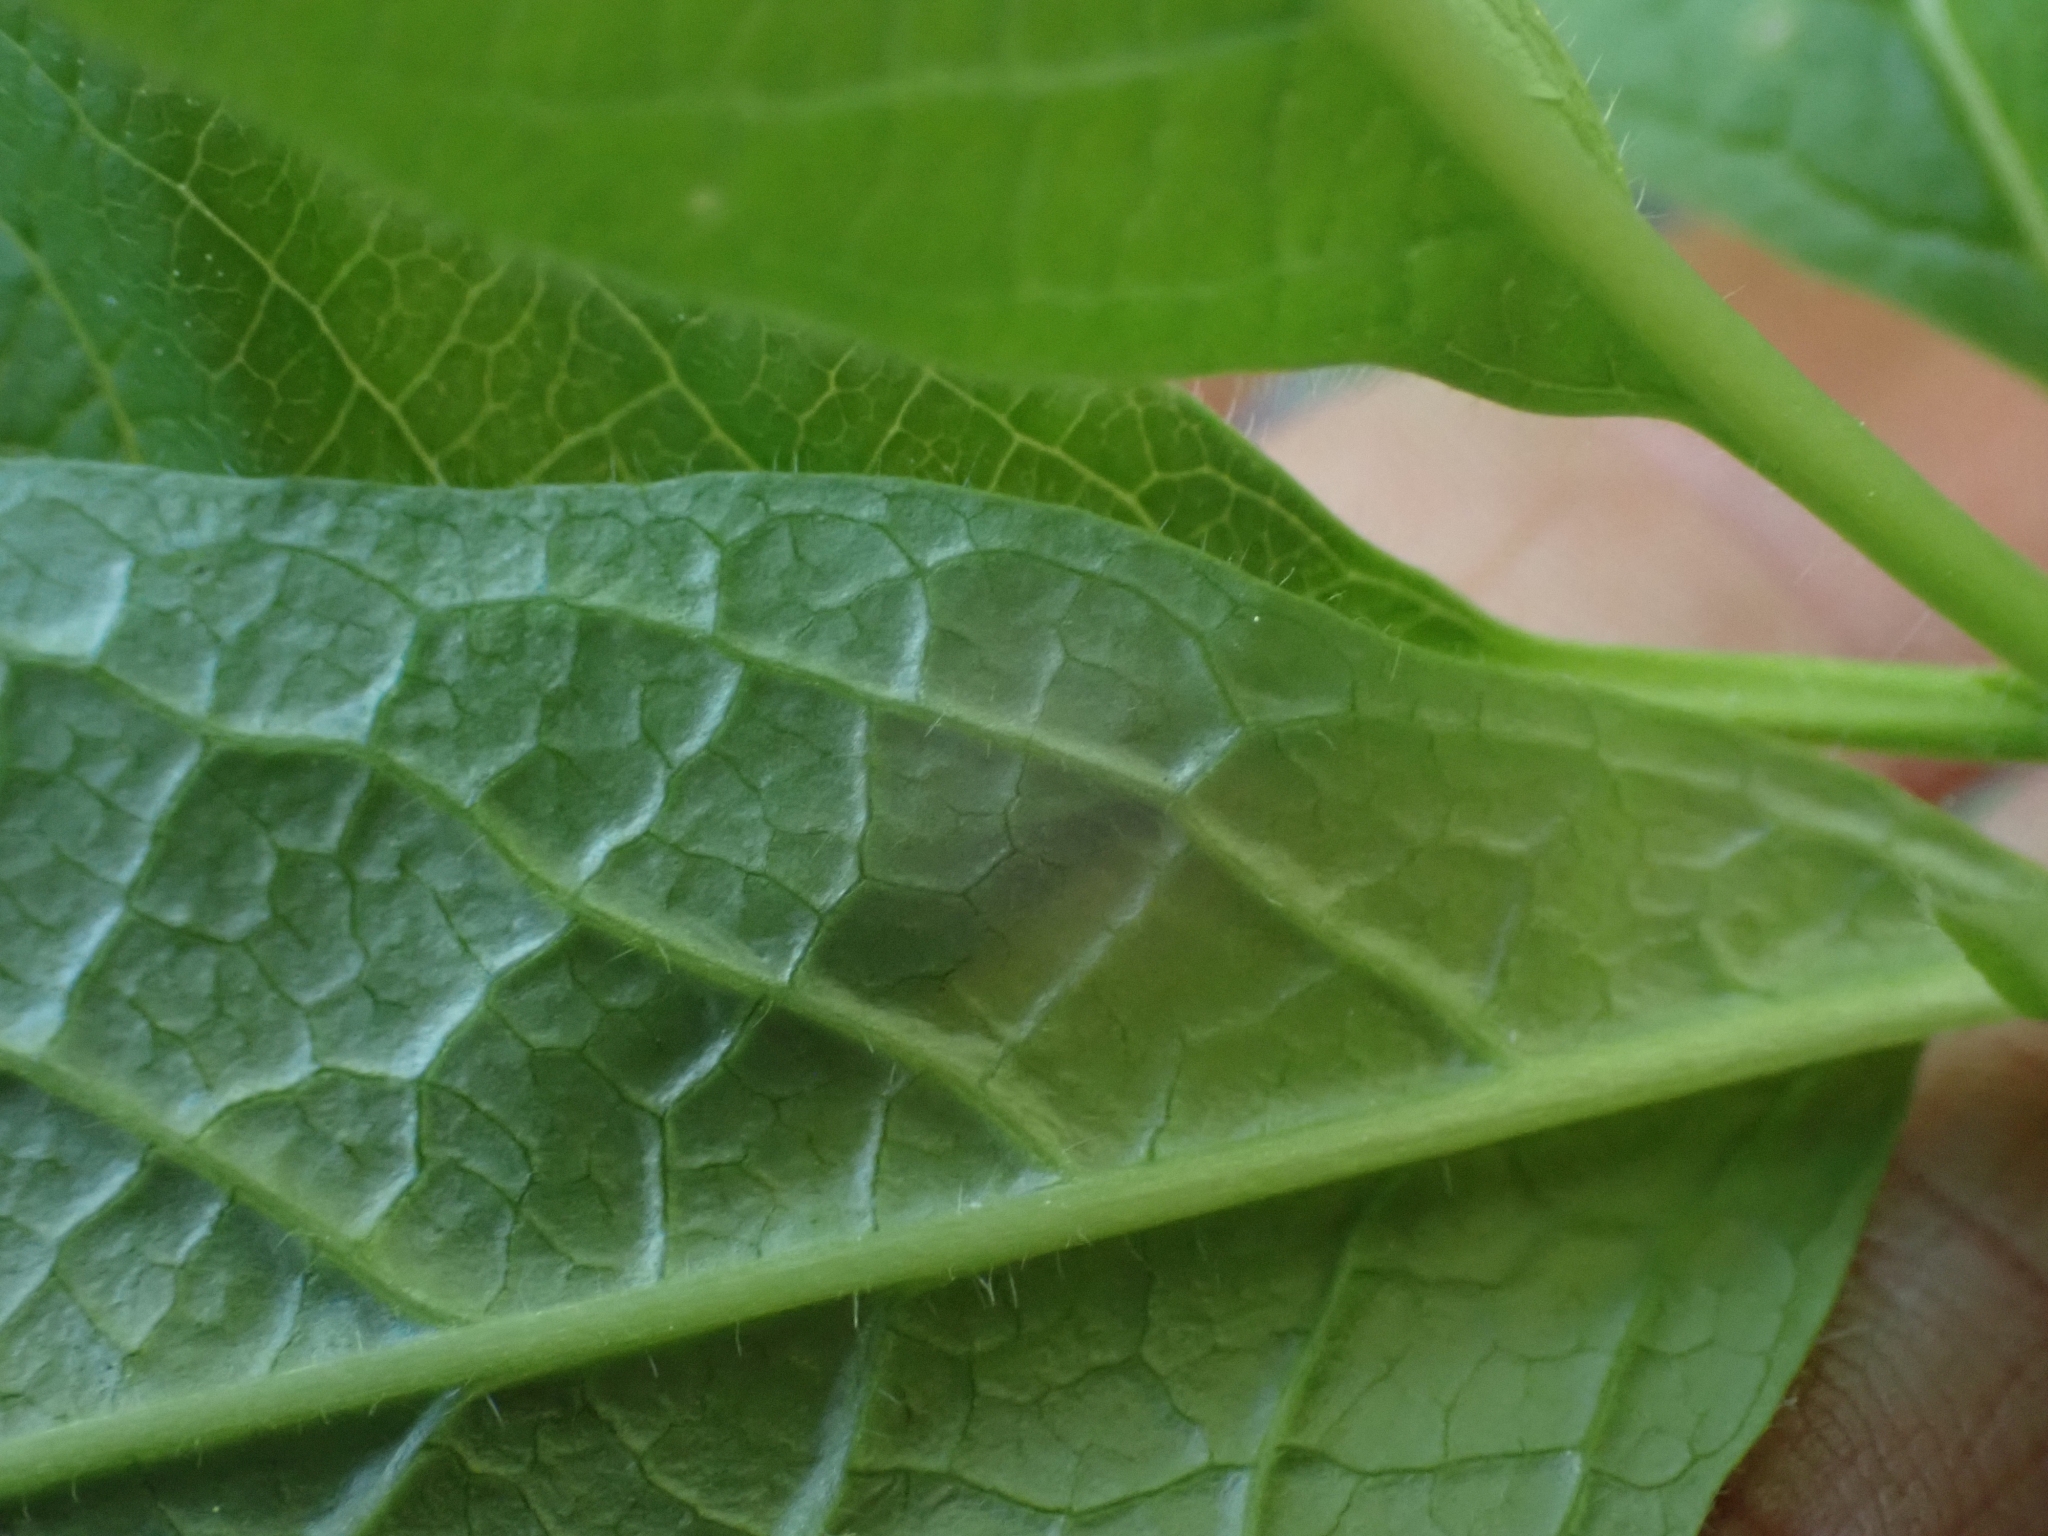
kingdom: Plantae
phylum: Tracheophyta
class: Magnoliopsida
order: Dipsacales
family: Caprifoliaceae
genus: Lonicera
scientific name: Lonicera involucrata
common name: Californian honeysuckle
